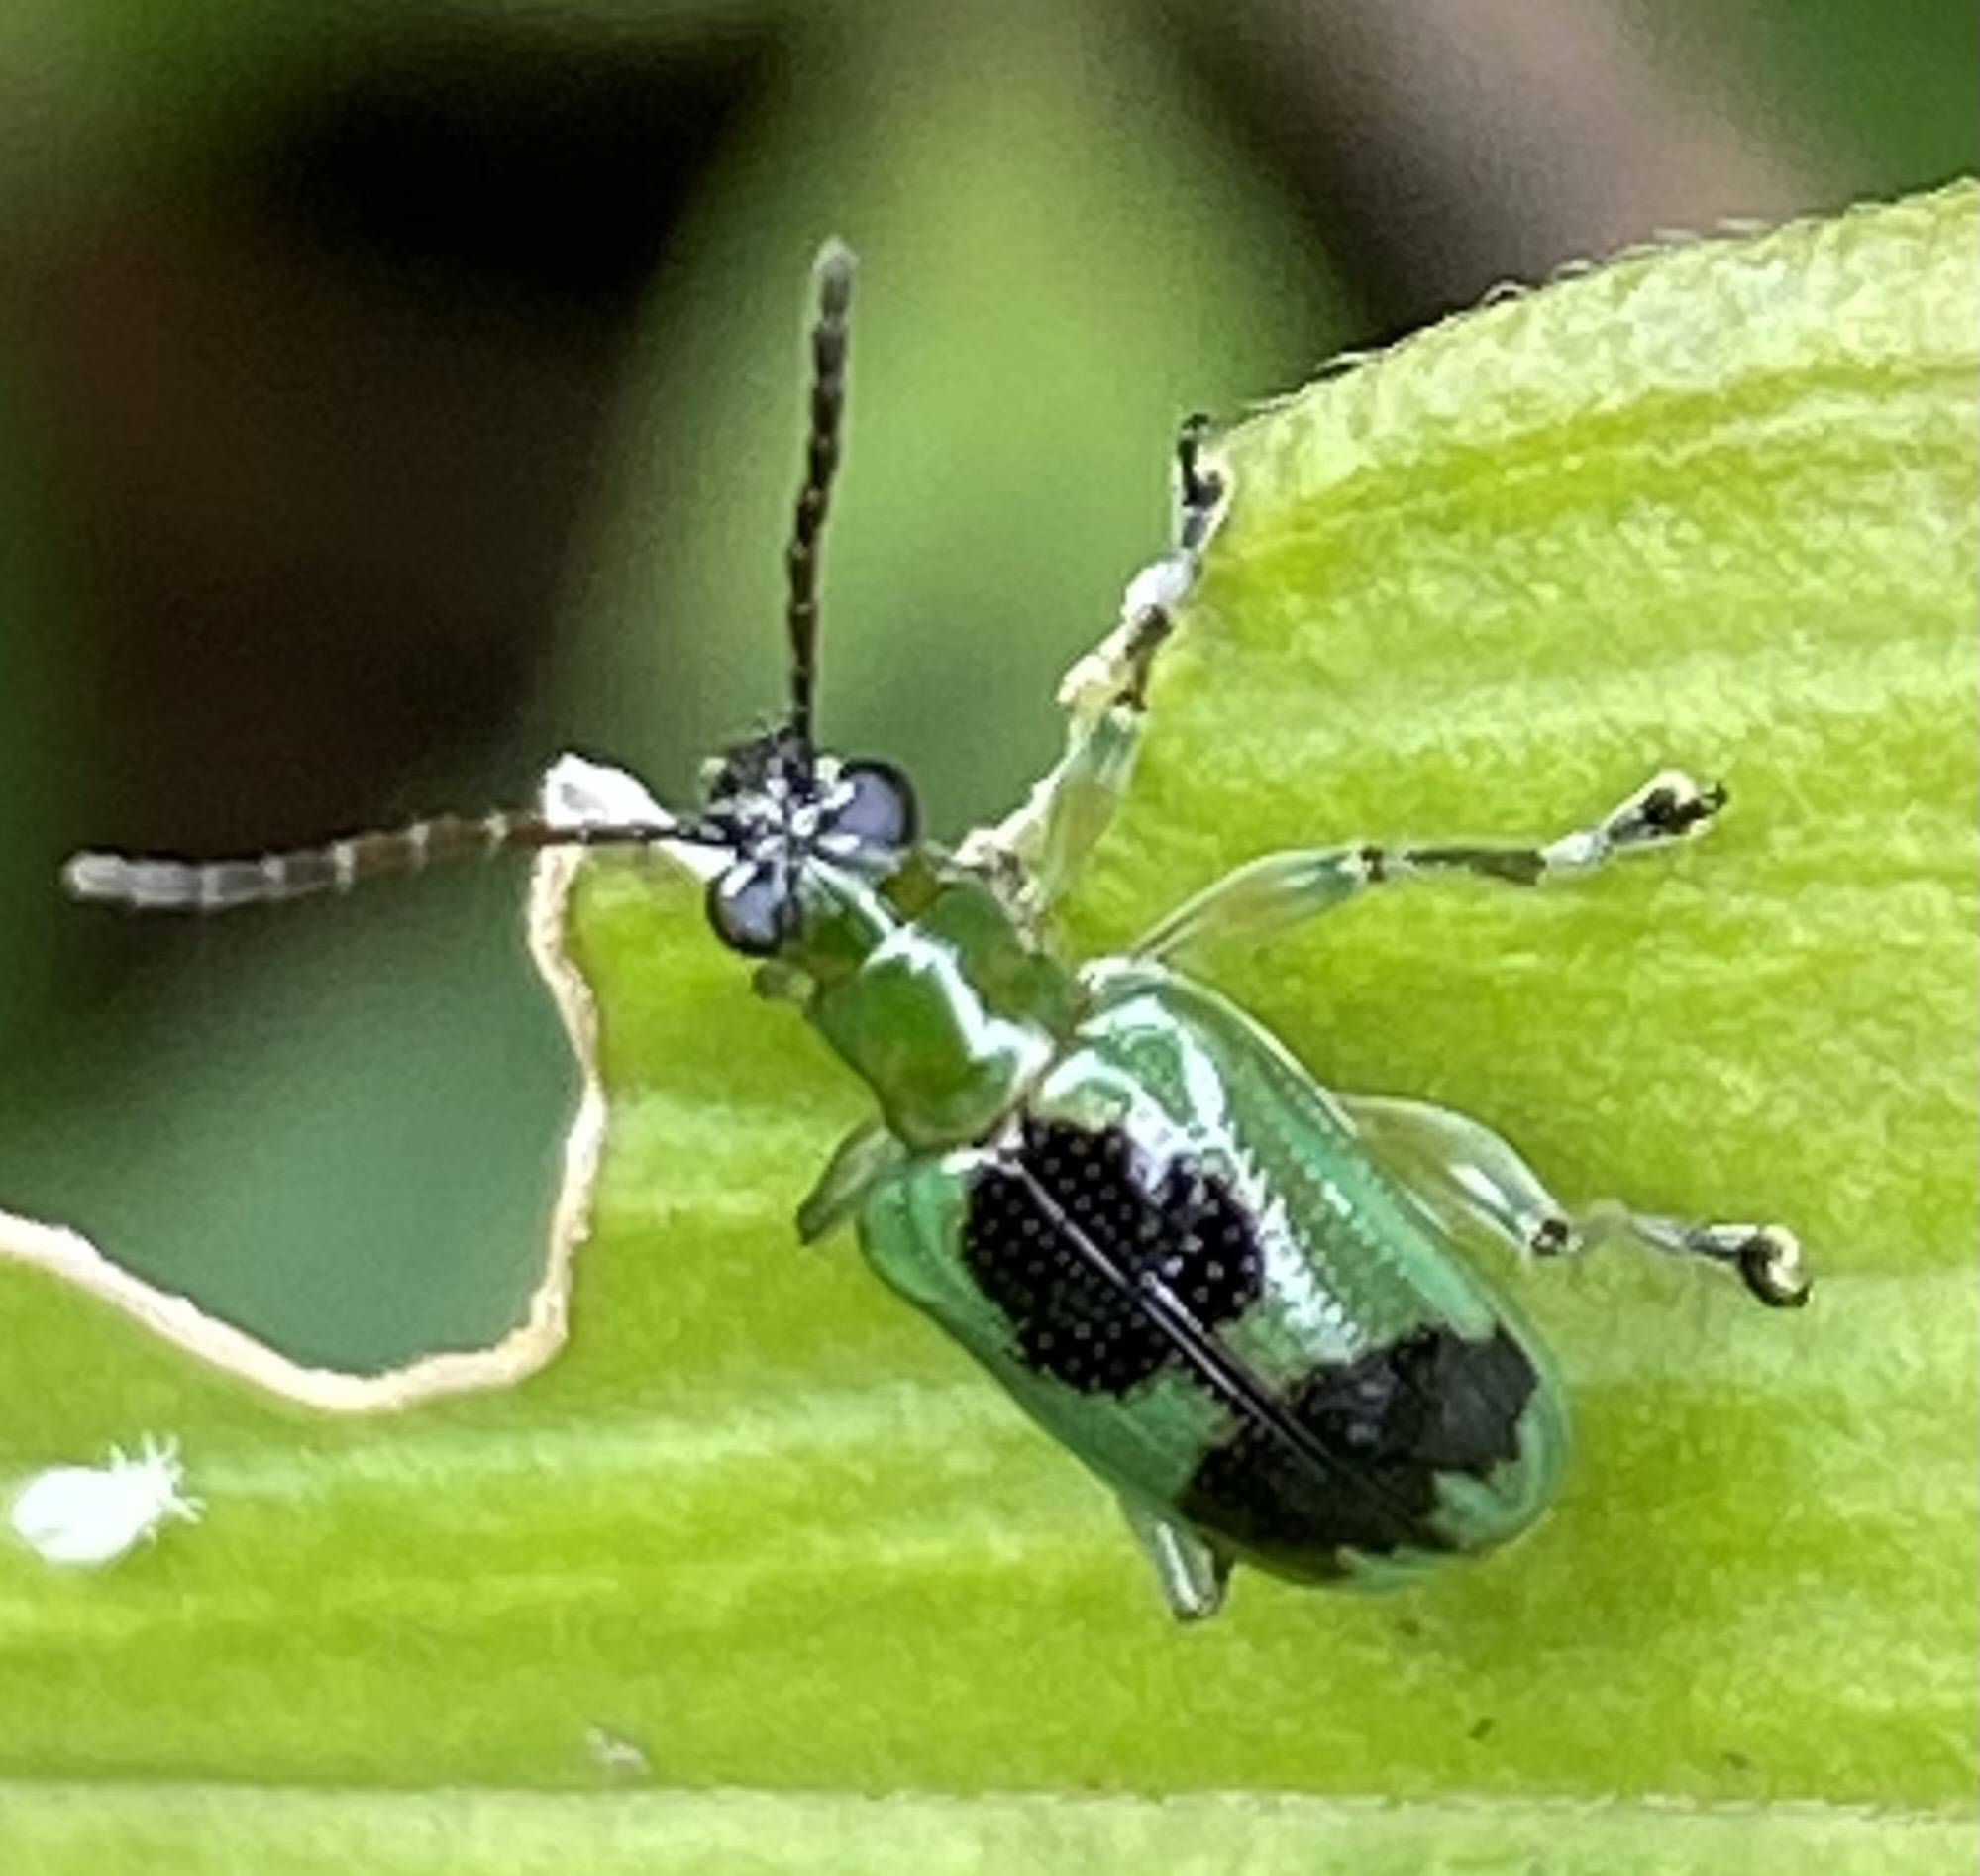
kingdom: Animalia
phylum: Arthropoda
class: Insecta
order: Coleoptera
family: Chrysomelidae
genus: Neolema
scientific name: Neolema
